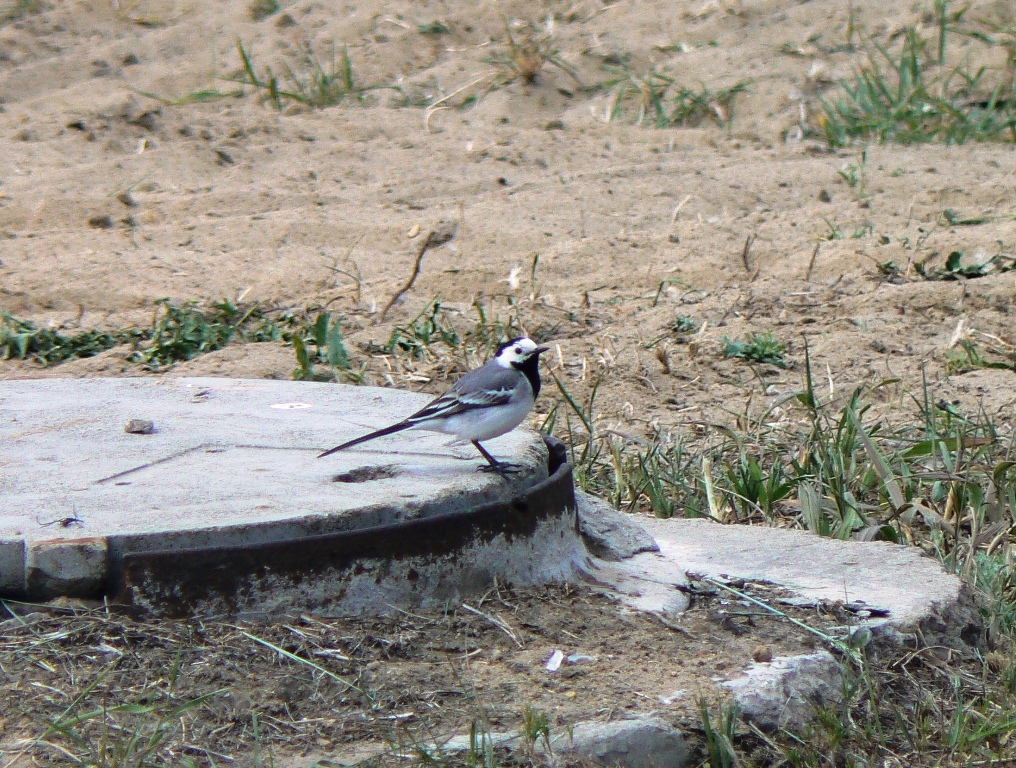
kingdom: Animalia
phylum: Chordata
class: Aves
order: Passeriformes
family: Motacillidae
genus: Motacilla
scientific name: Motacilla alba
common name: White wagtail
